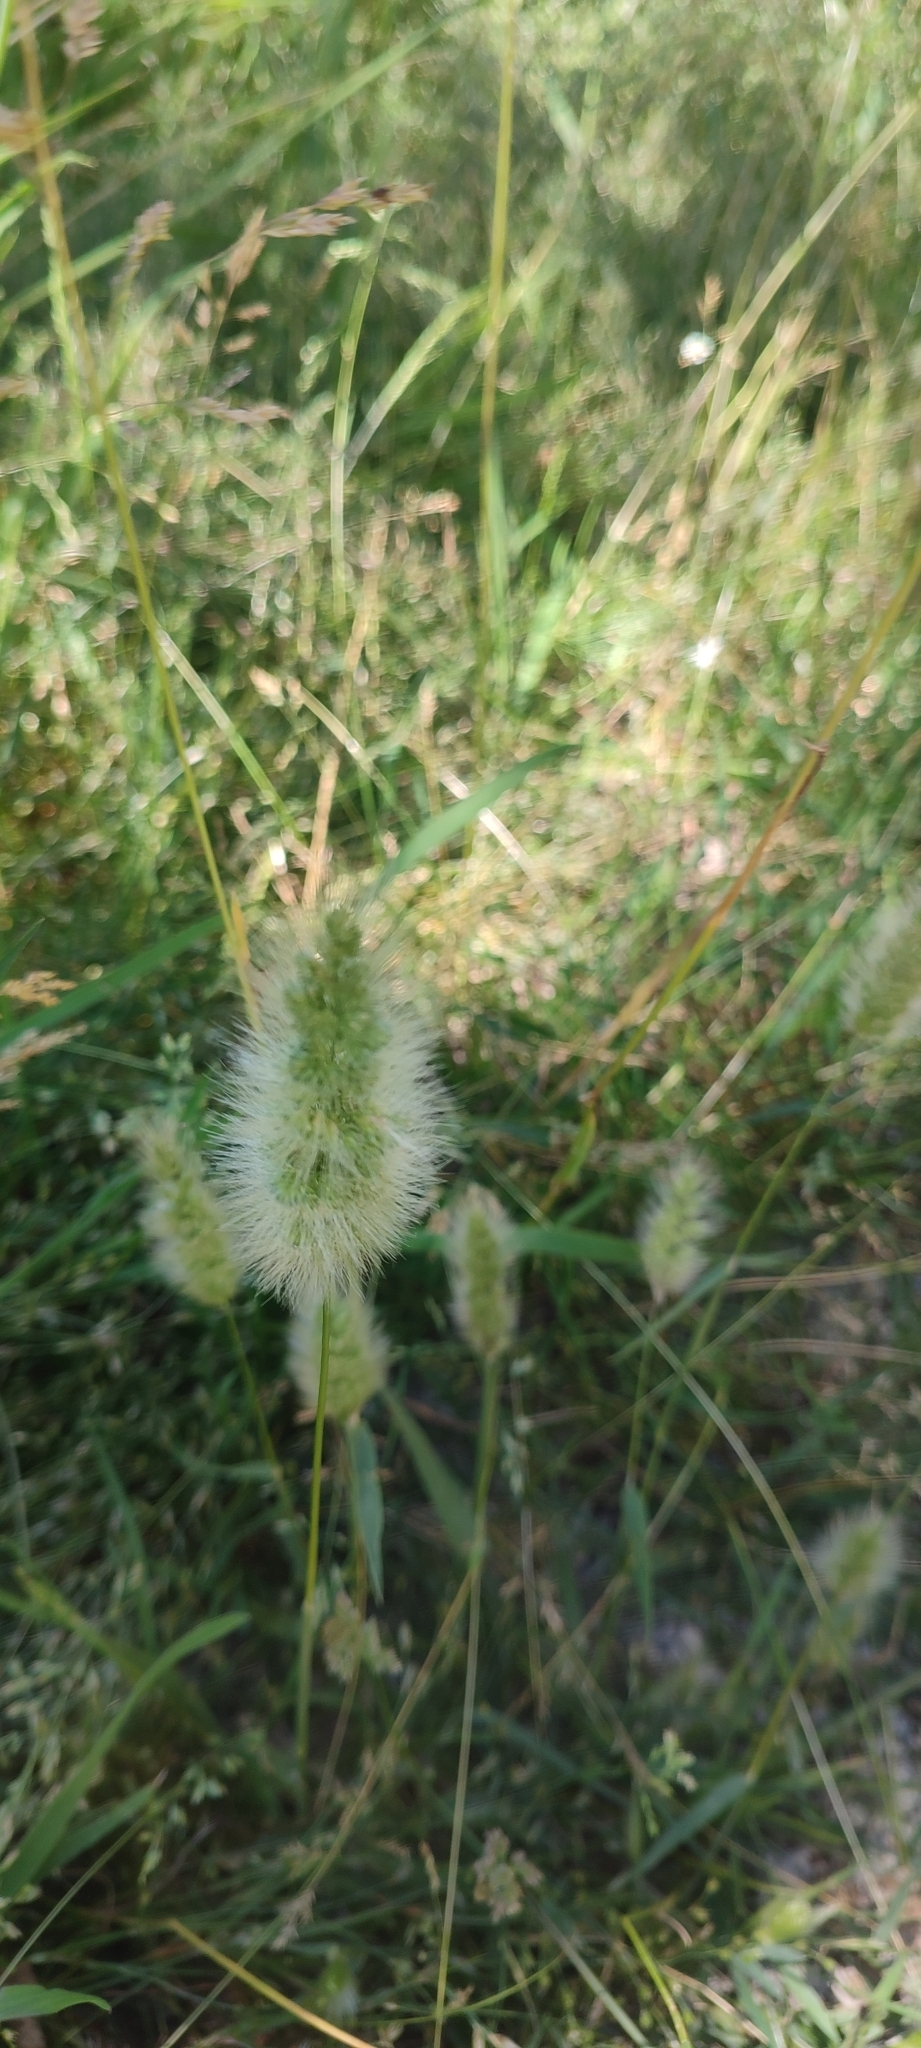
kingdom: Plantae
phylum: Tracheophyta
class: Liliopsida
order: Poales
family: Poaceae
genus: Polypogon
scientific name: Polypogon monspeliensis
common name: Annual rabbitsfoot grass
